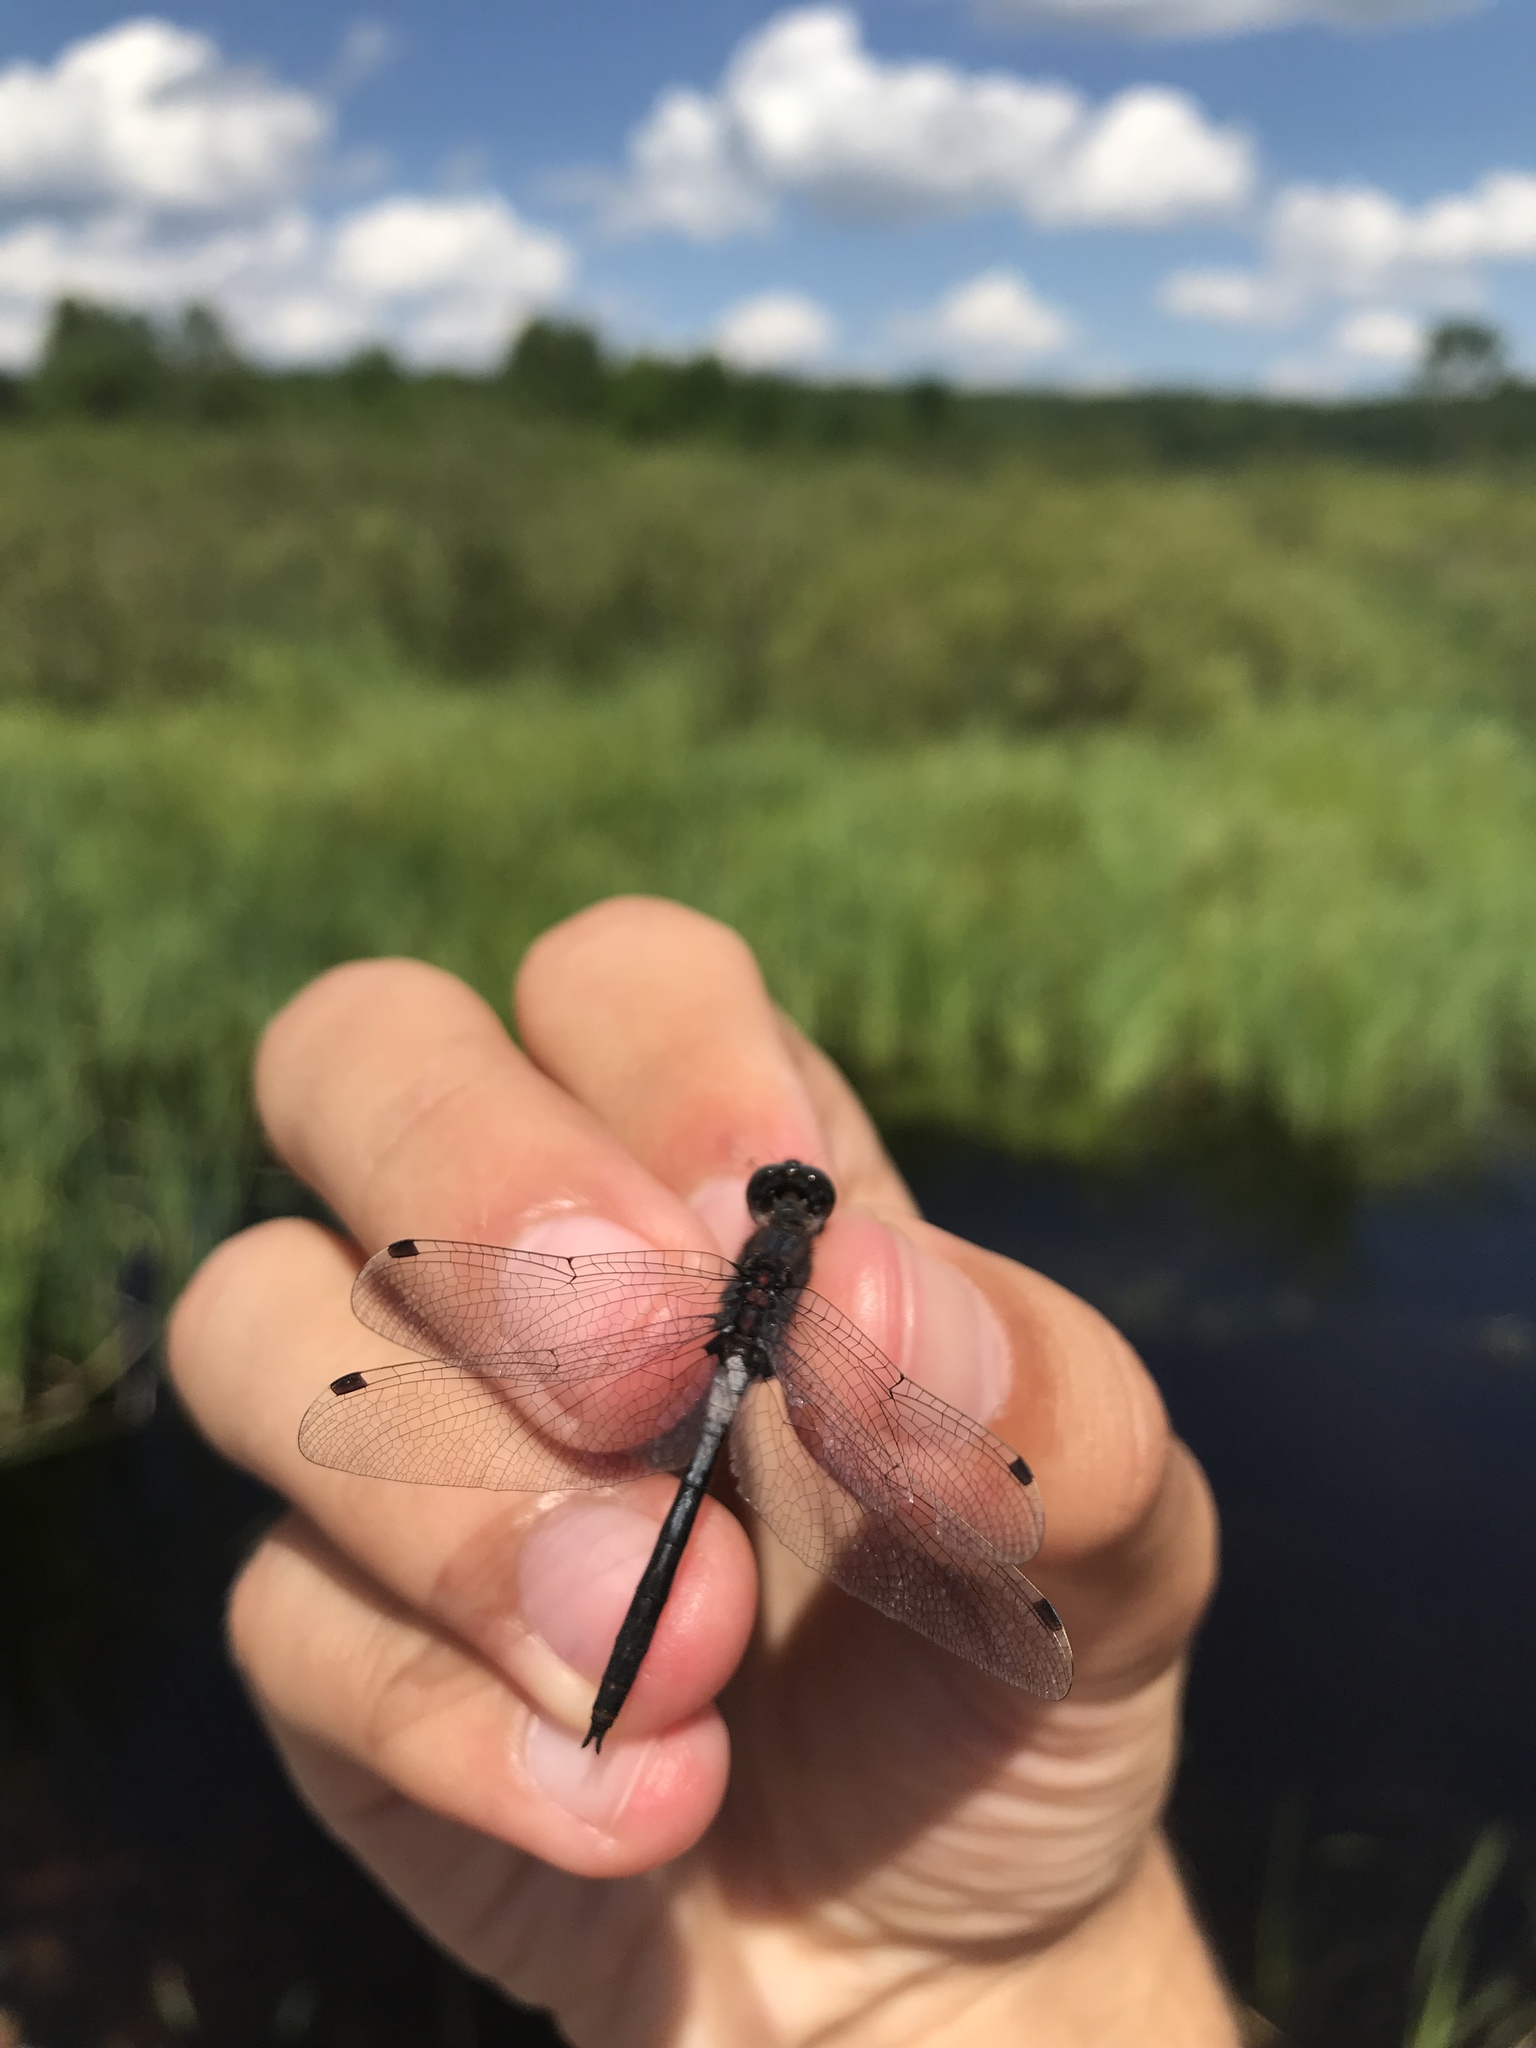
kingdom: Animalia
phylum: Arthropoda
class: Insecta
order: Odonata
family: Libellulidae
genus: Leucorrhinia
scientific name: Leucorrhinia proxima
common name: Belted whiteface
